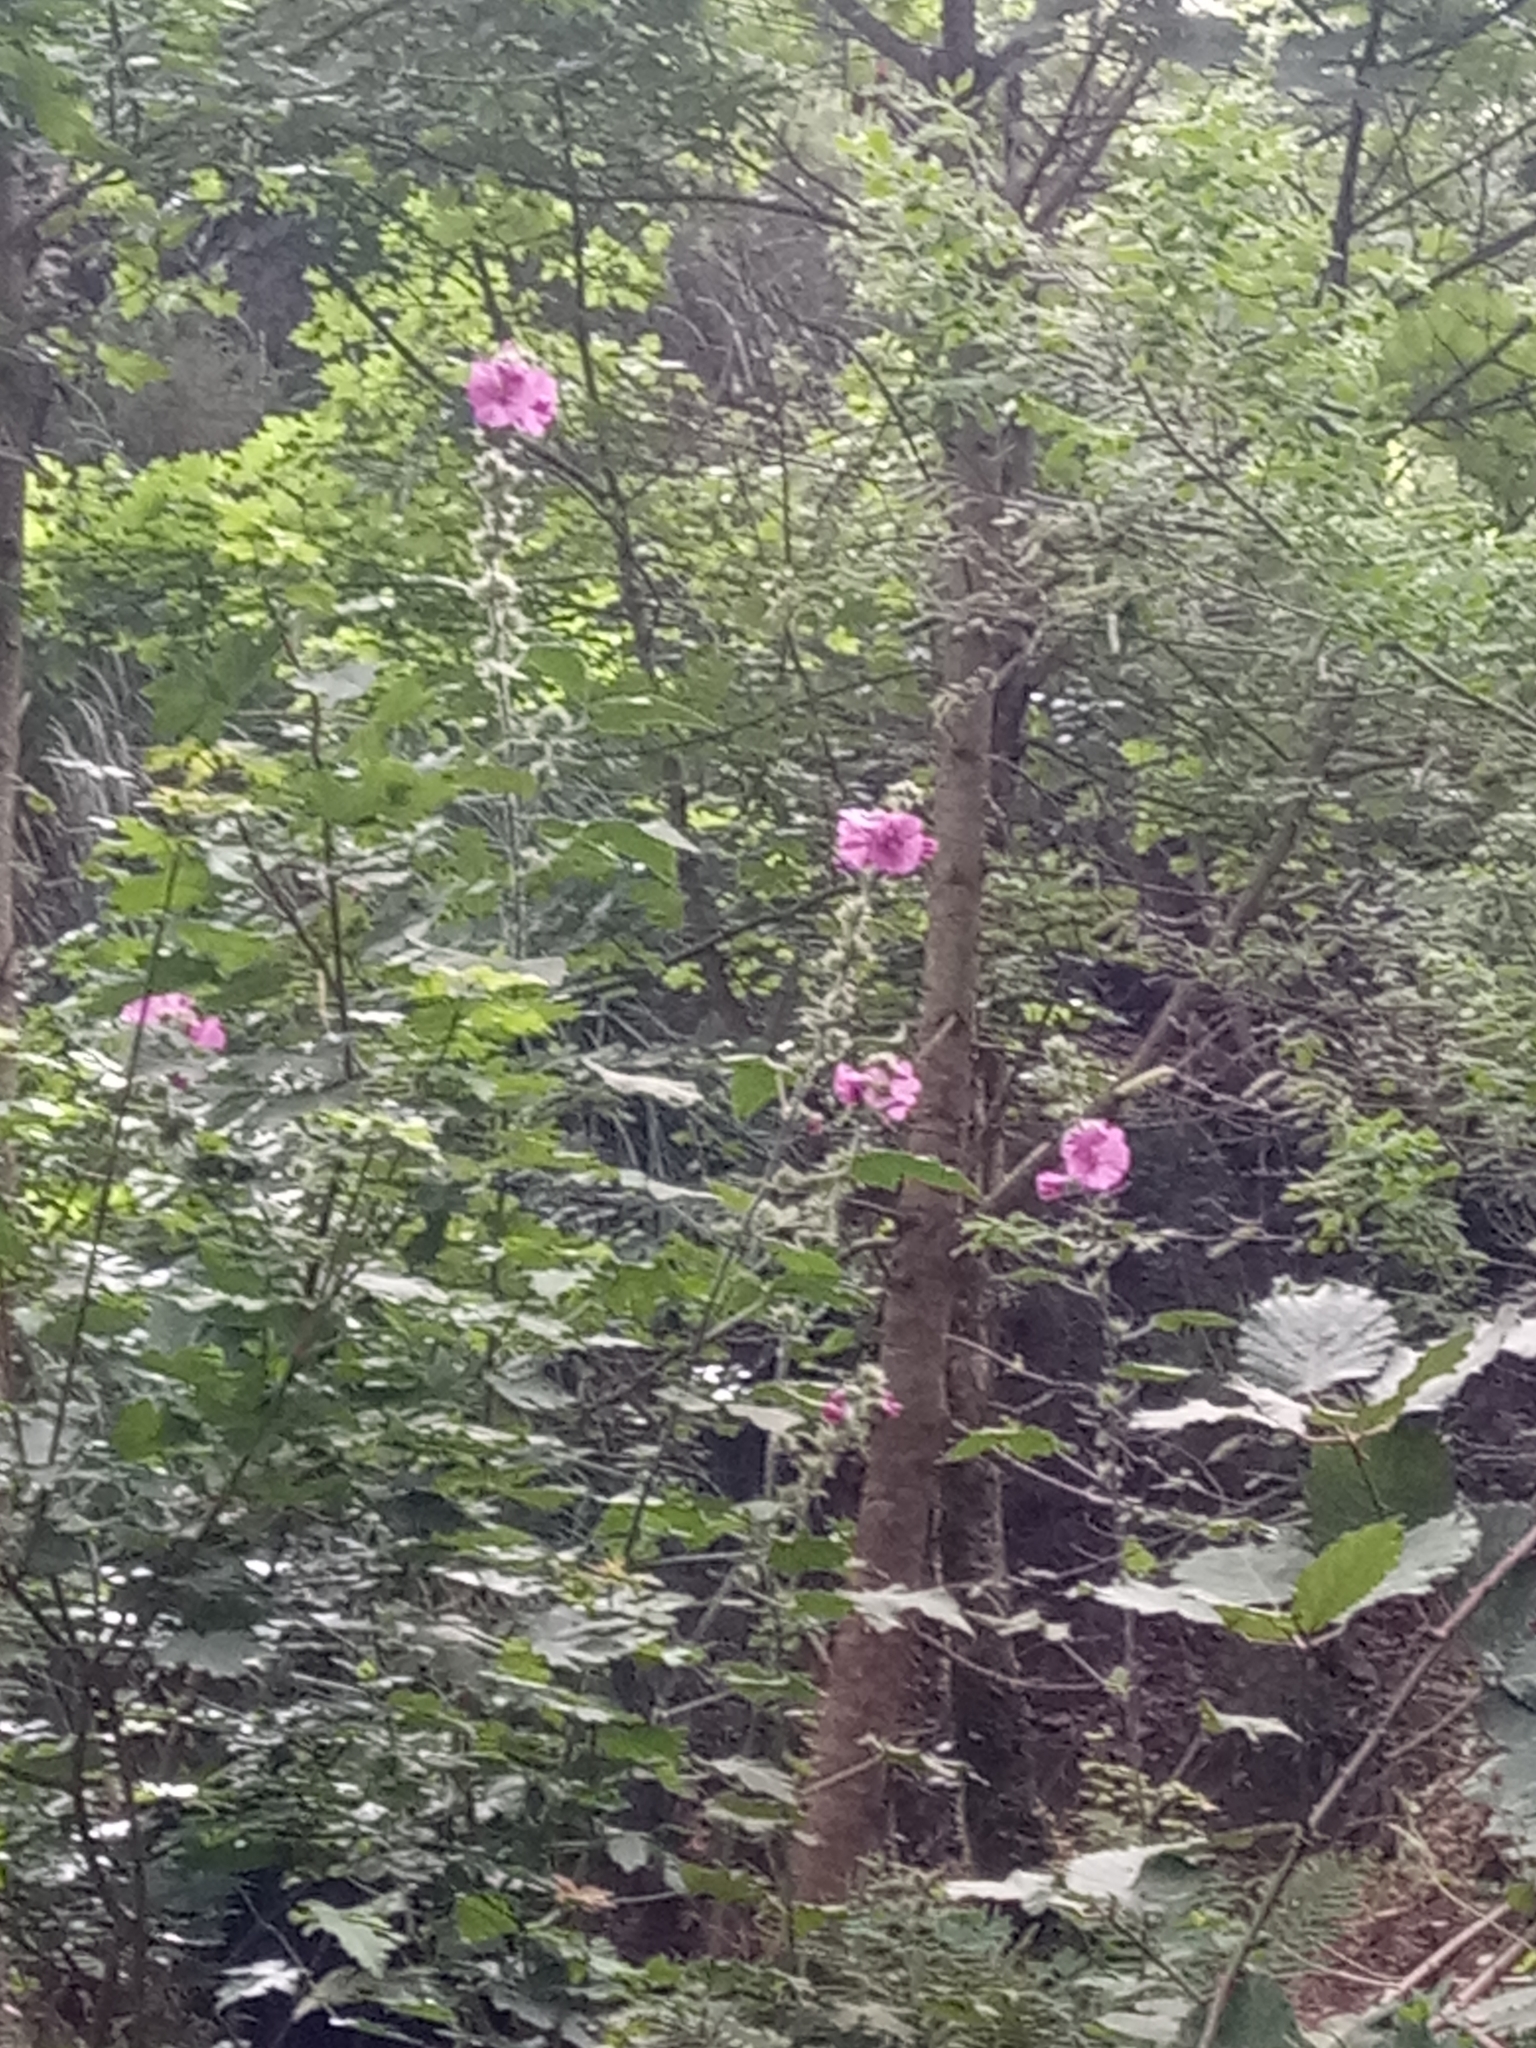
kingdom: Plantae
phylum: Tracheophyta
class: Magnoliopsida
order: Malvales
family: Malvaceae
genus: Malva
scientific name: Malva olbia
